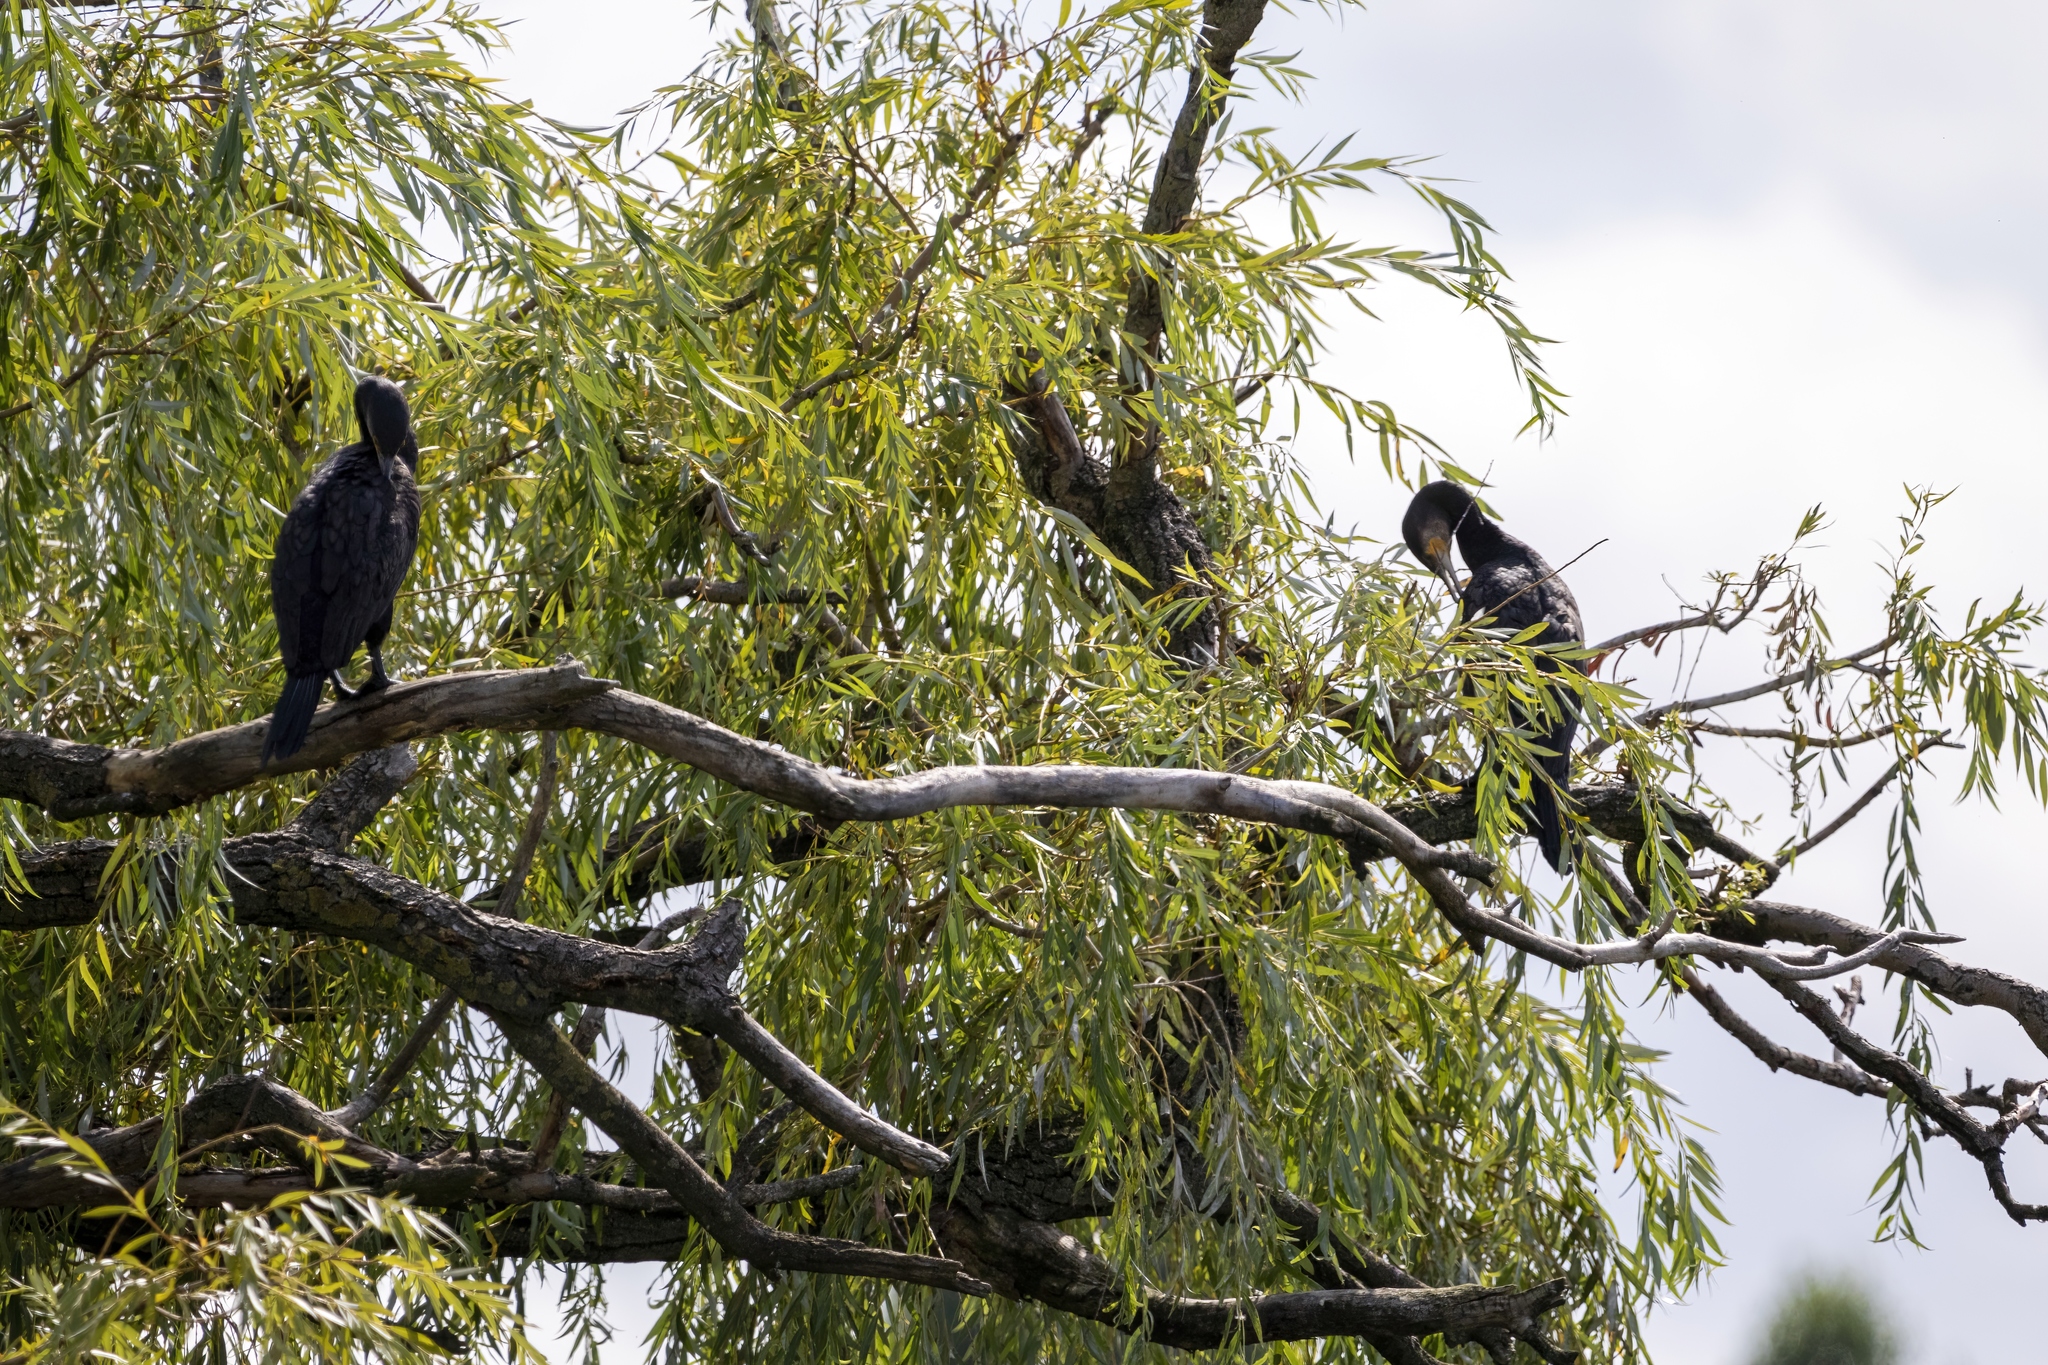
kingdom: Animalia
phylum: Chordata
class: Aves
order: Suliformes
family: Phalacrocoracidae
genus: Phalacrocorax
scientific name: Phalacrocorax carbo
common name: Great cormorant
